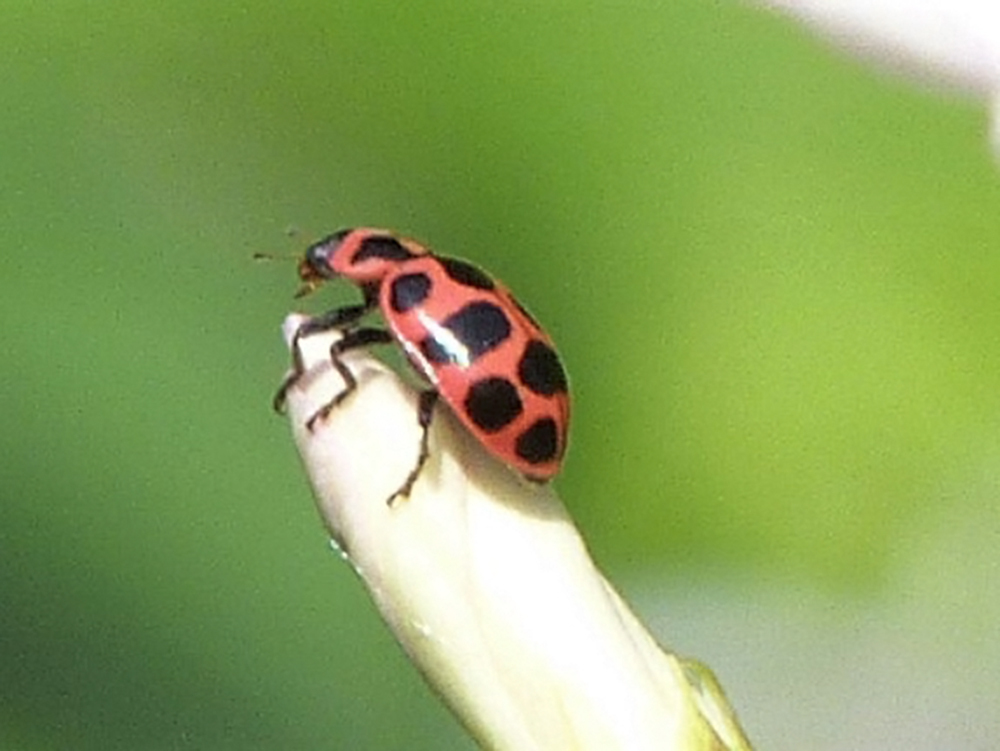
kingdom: Animalia
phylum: Arthropoda
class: Insecta
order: Coleoptera
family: Coccinellidae
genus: Coleomegilla
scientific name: Coleomegilla maculata
